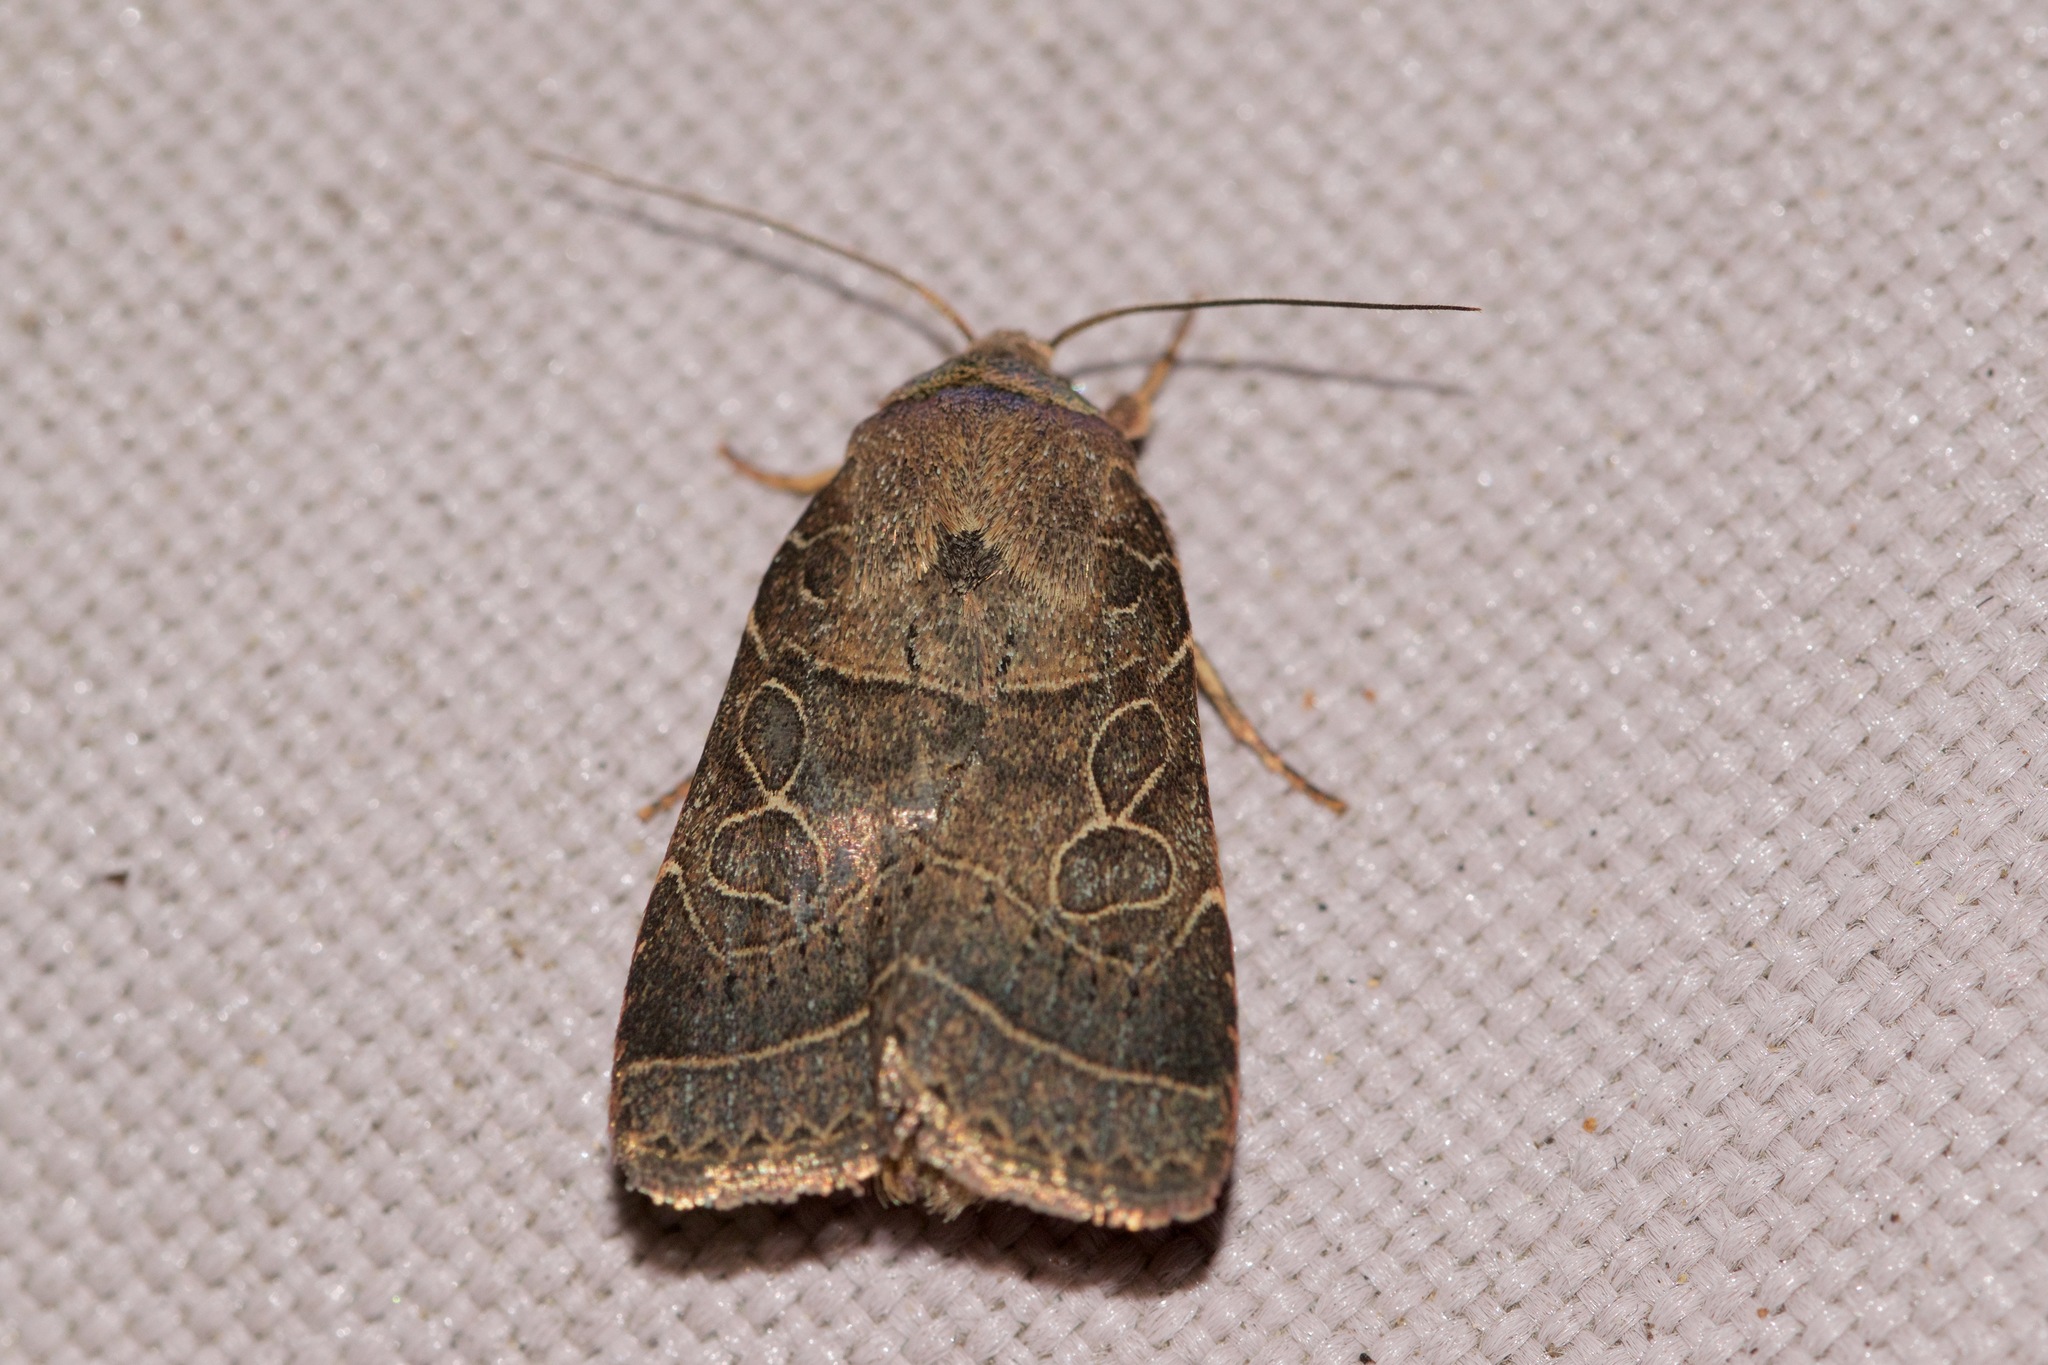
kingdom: Animalia
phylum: Arthropoda
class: Insecta
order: Lepidoptera
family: Noctuidae
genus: Orthodes
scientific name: Orthodes majuscula
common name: Rustic quaker
